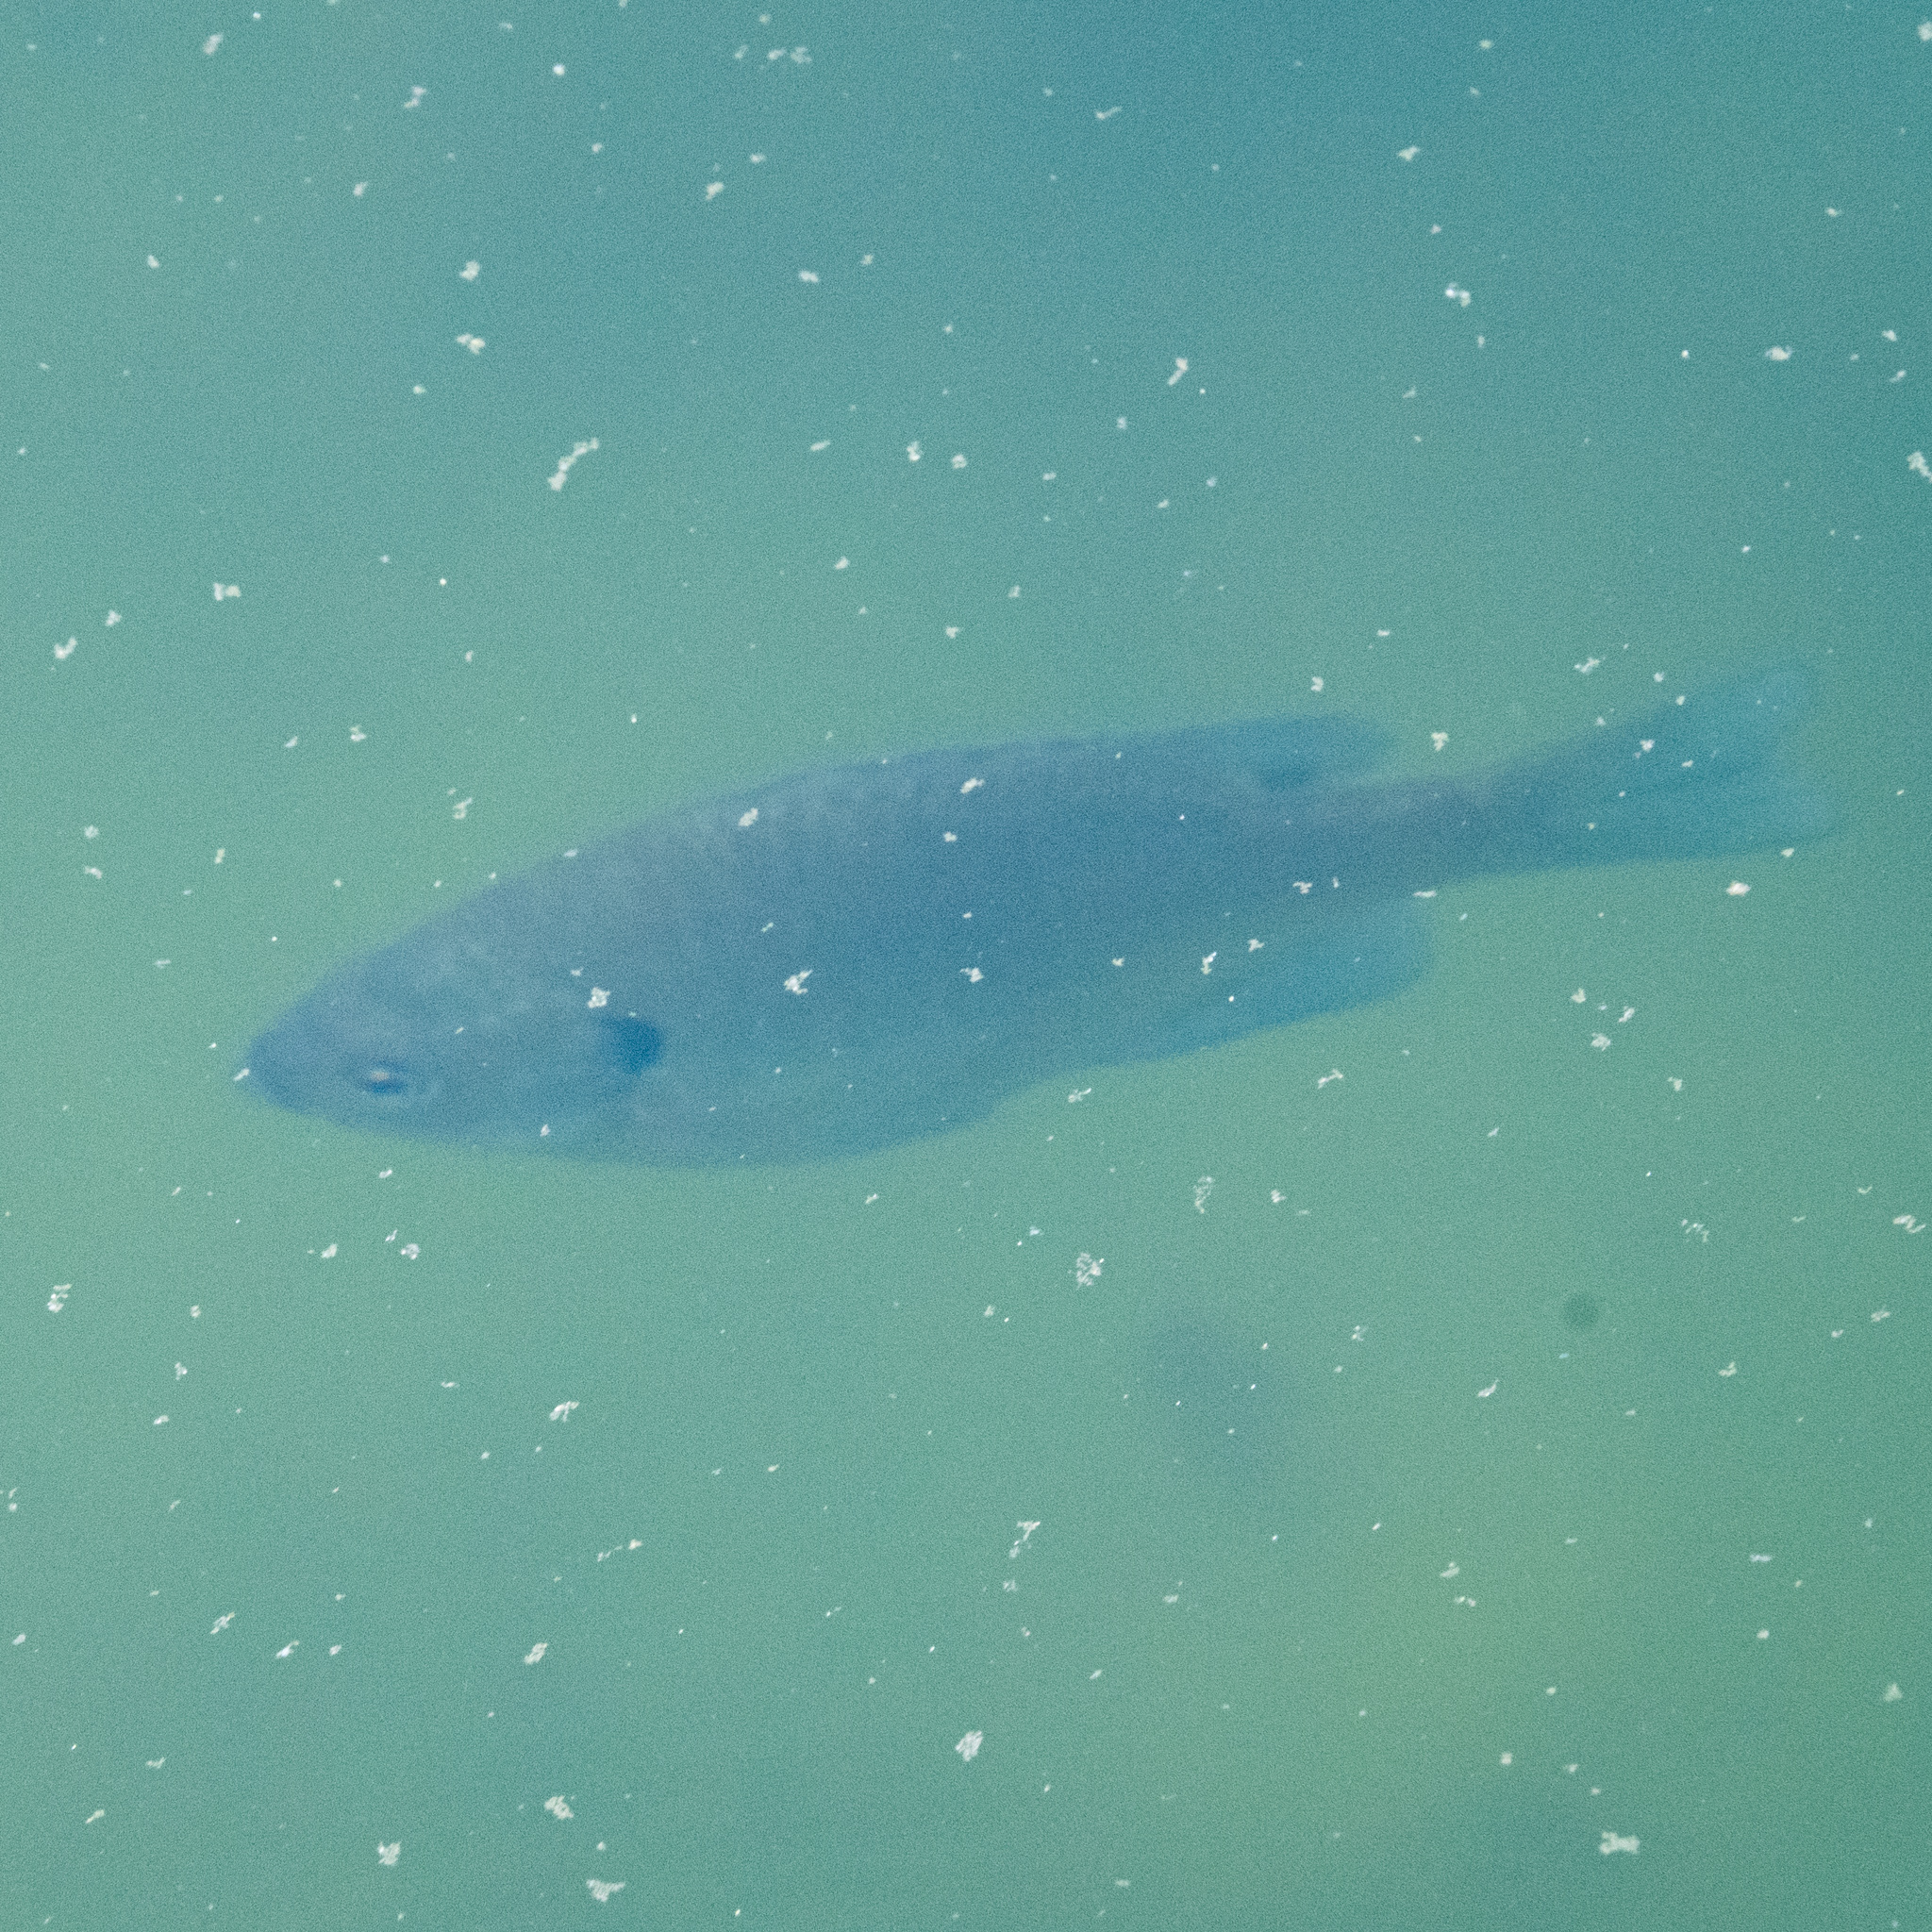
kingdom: Animalia
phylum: Chordata
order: Perciformes
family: Centrarchidae
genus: Lepomis
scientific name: Lepomis macrochirus
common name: Bluegill
